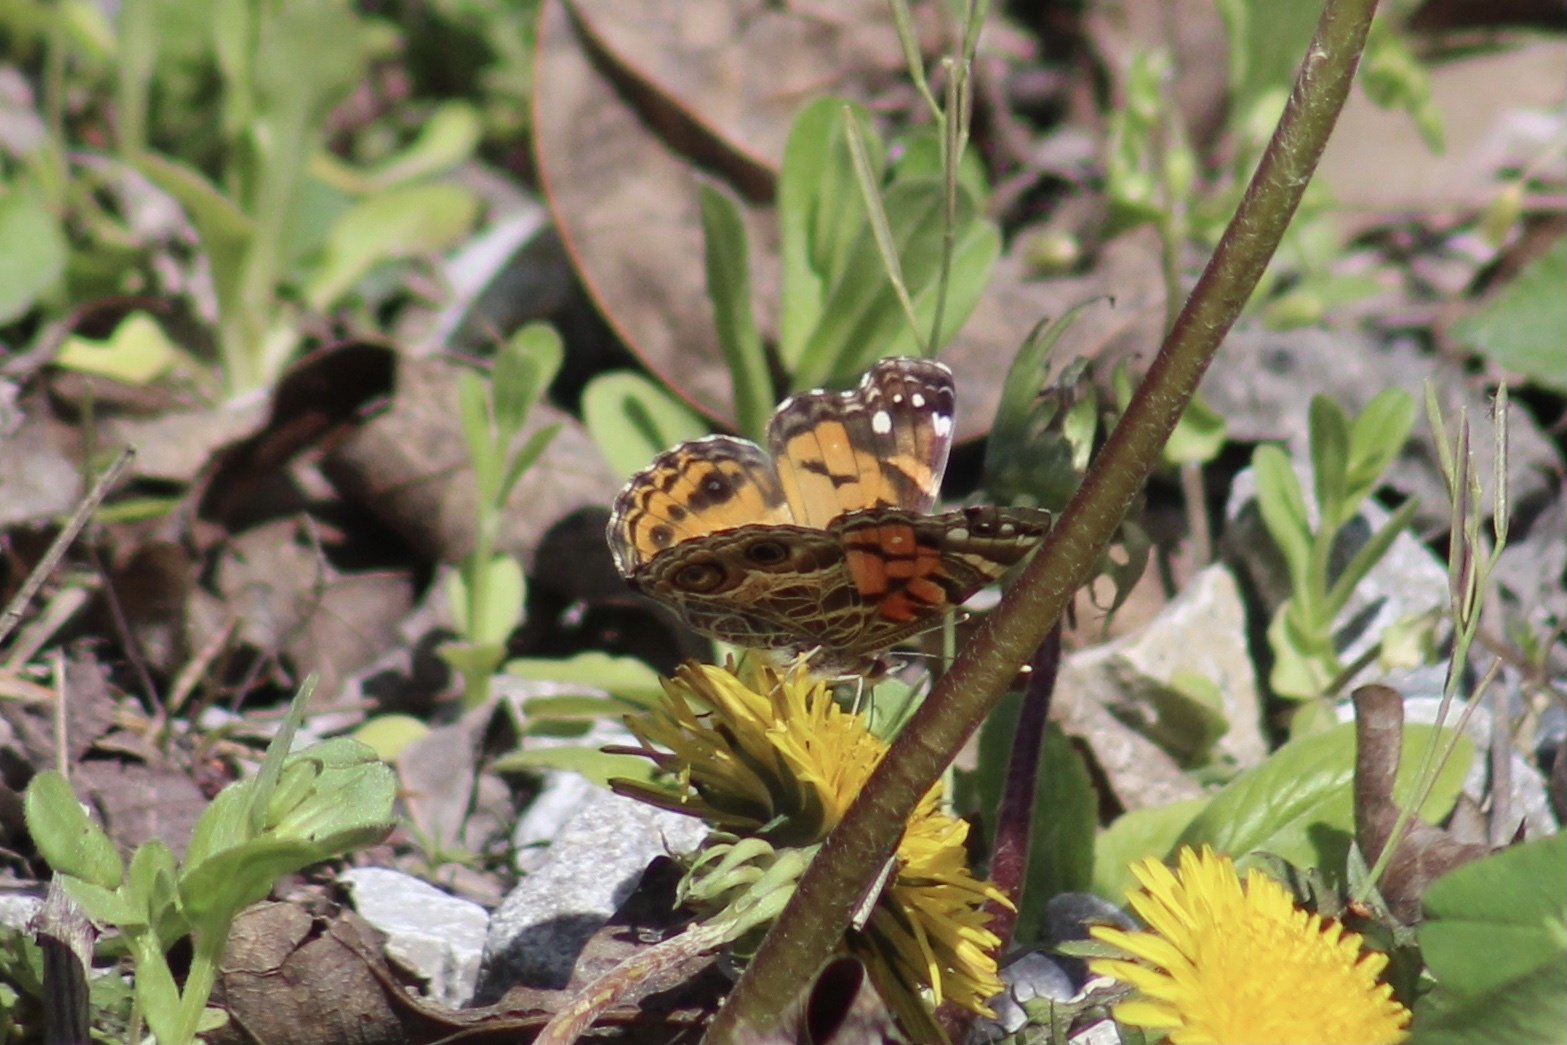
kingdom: Animalia
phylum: Arthropoda
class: Insecta
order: Lepidoptera
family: Nymphalidae
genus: Vanessa
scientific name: Vanessa virginiensis
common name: American lady
